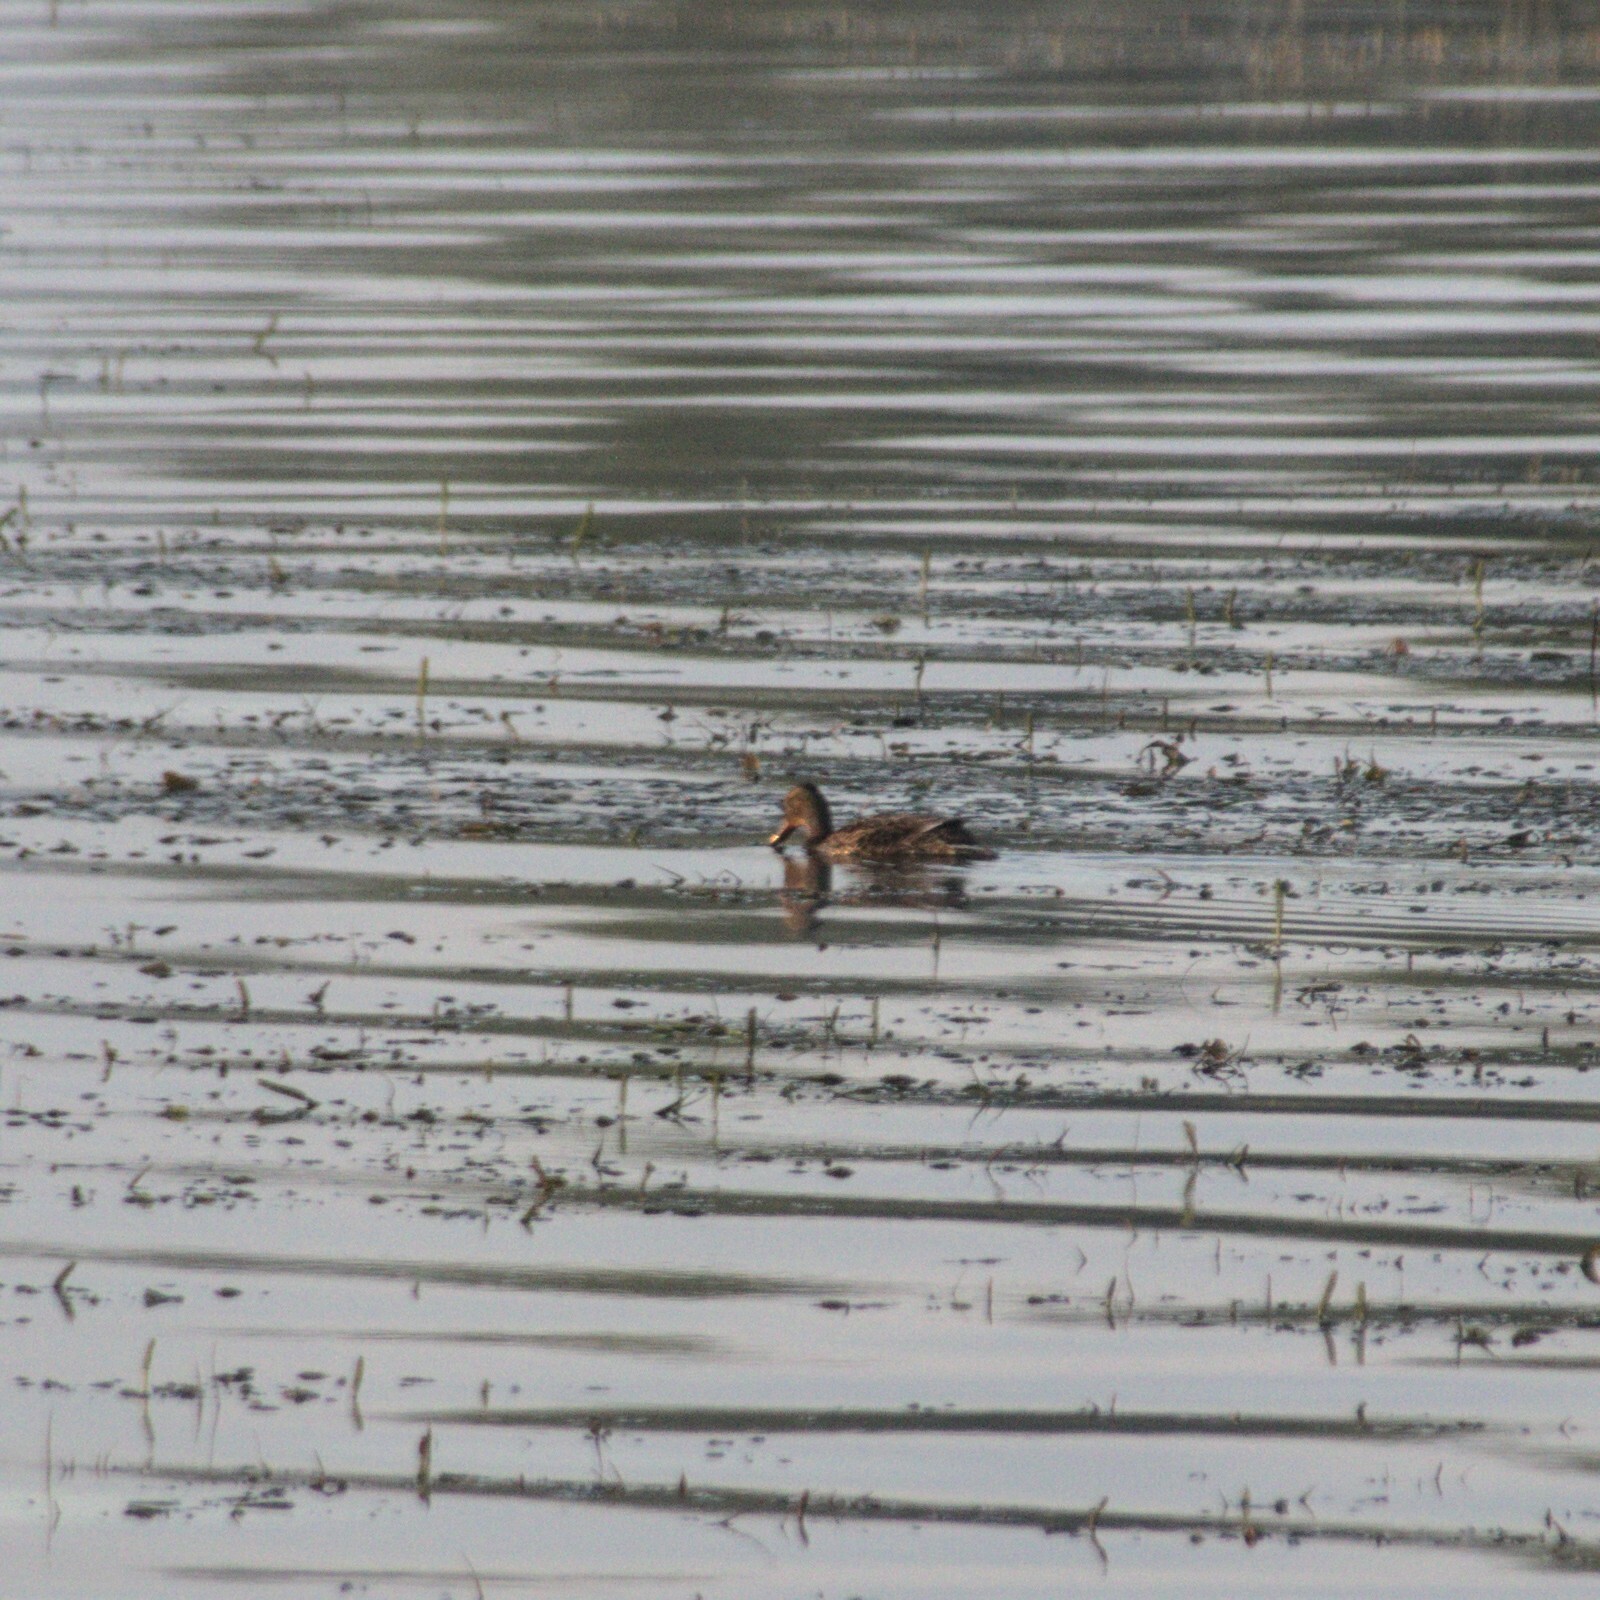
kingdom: Animalia
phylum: Chordata
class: Aves
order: Anseriformes
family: Anatidae
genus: Anas
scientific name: Anas platyrhynchos
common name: Mallard
